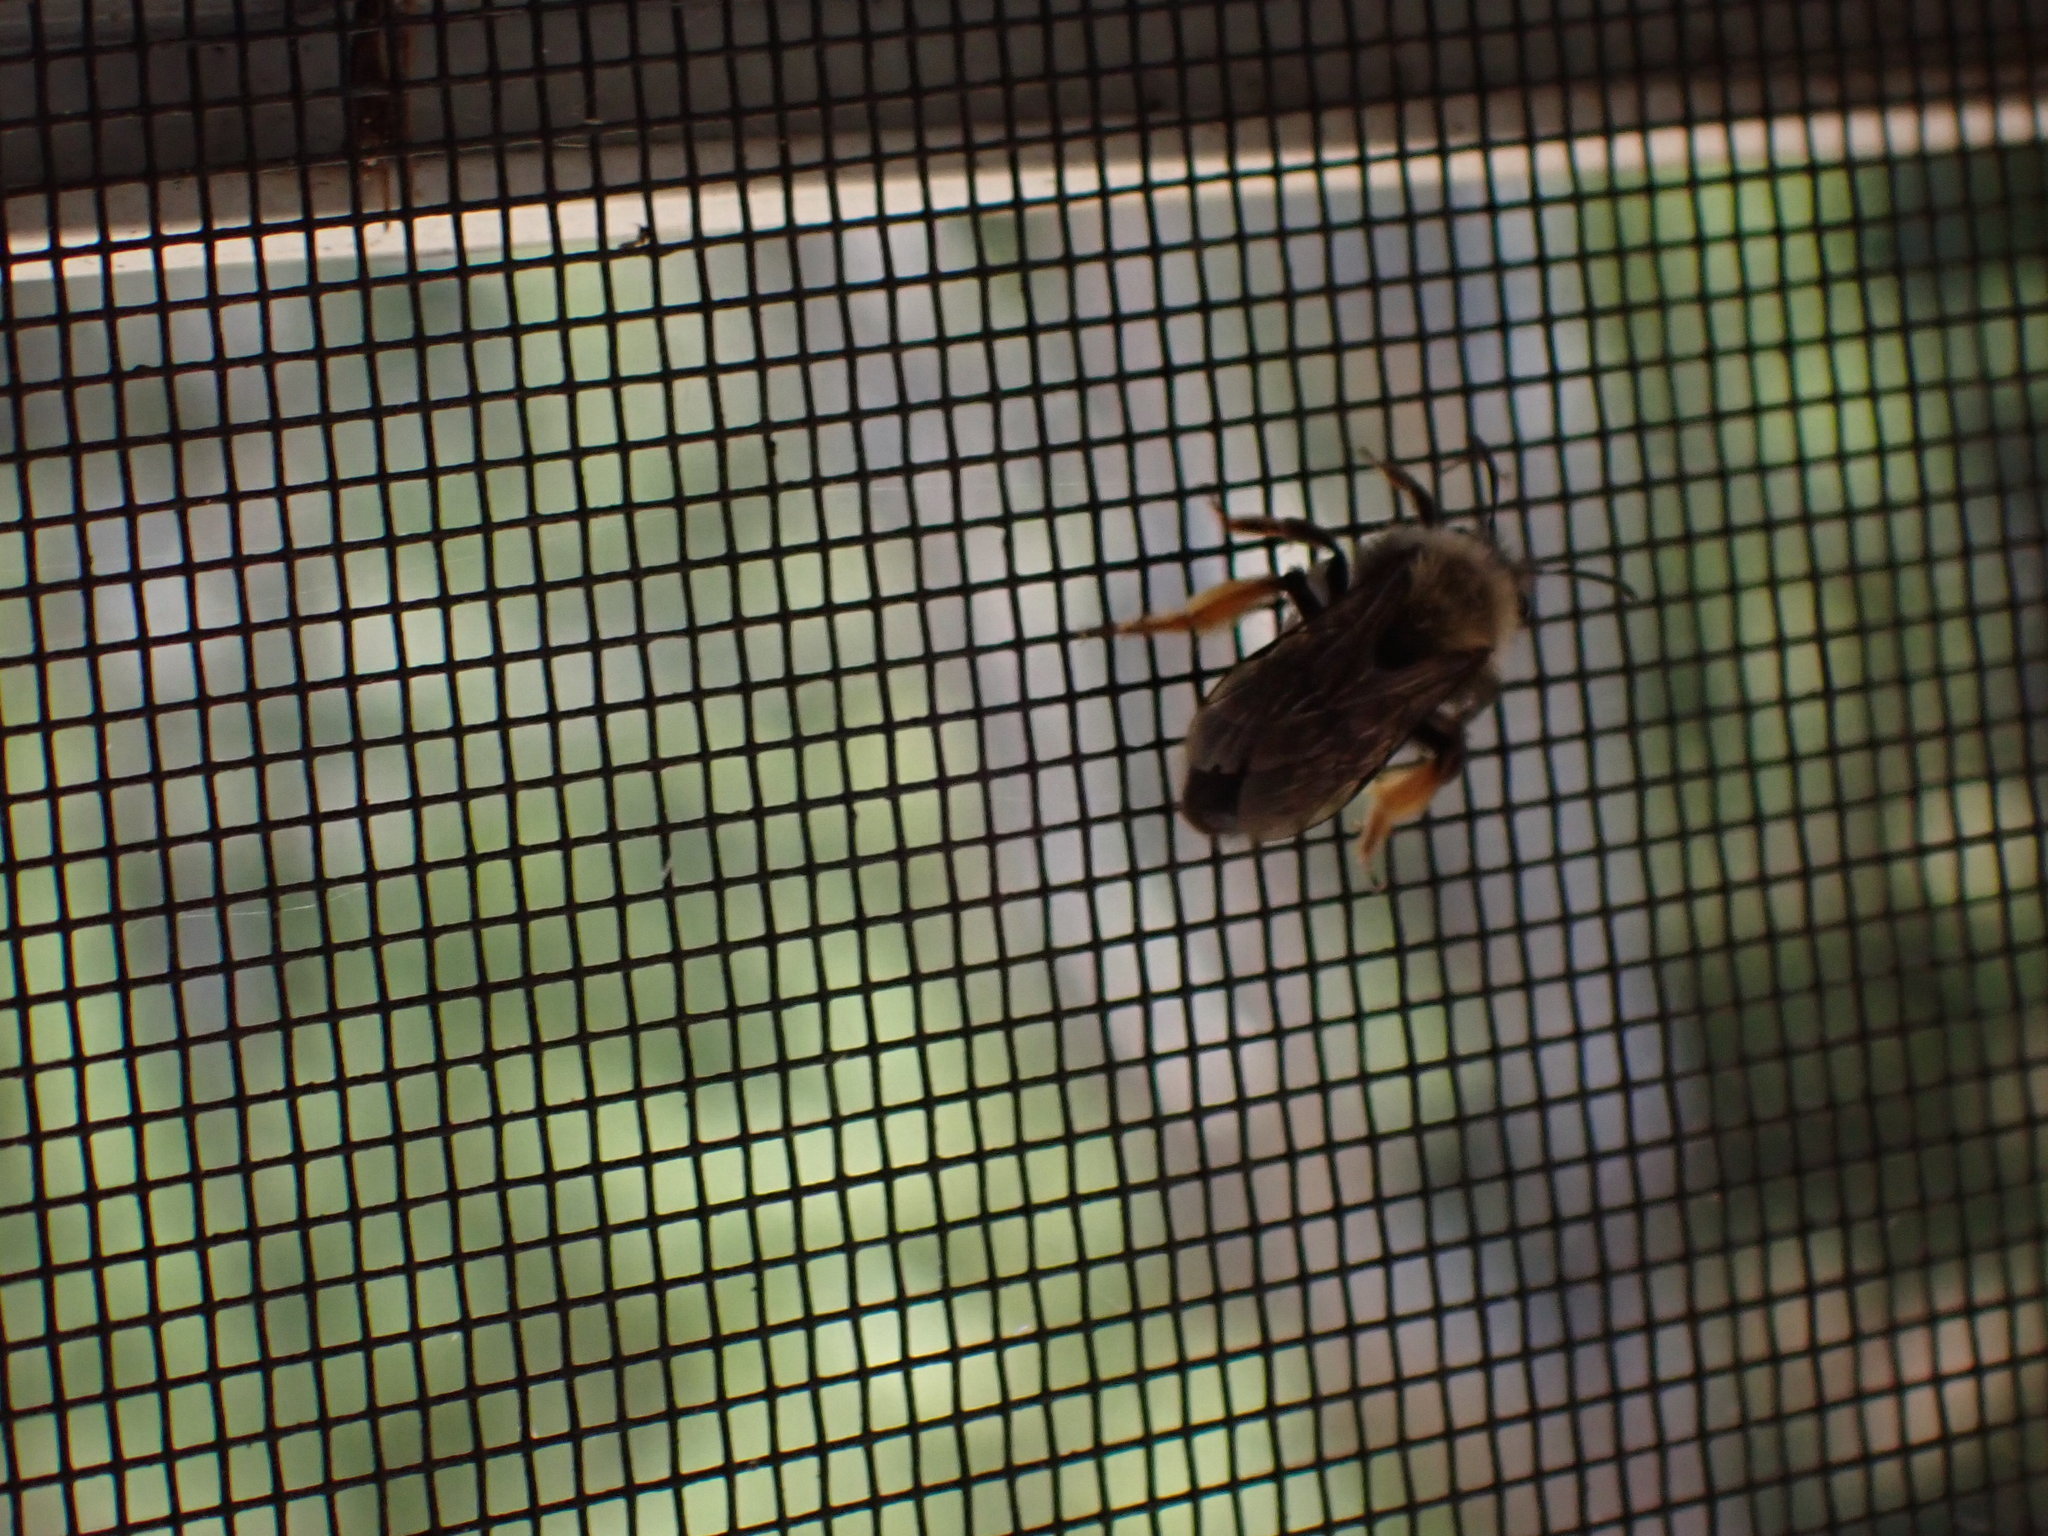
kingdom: Animalia
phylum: Arthropoda
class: Insecta
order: Hymenoptera
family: Andrenidae
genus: Andrena
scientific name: Andrena clarkella
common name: Clarke's mining bee
